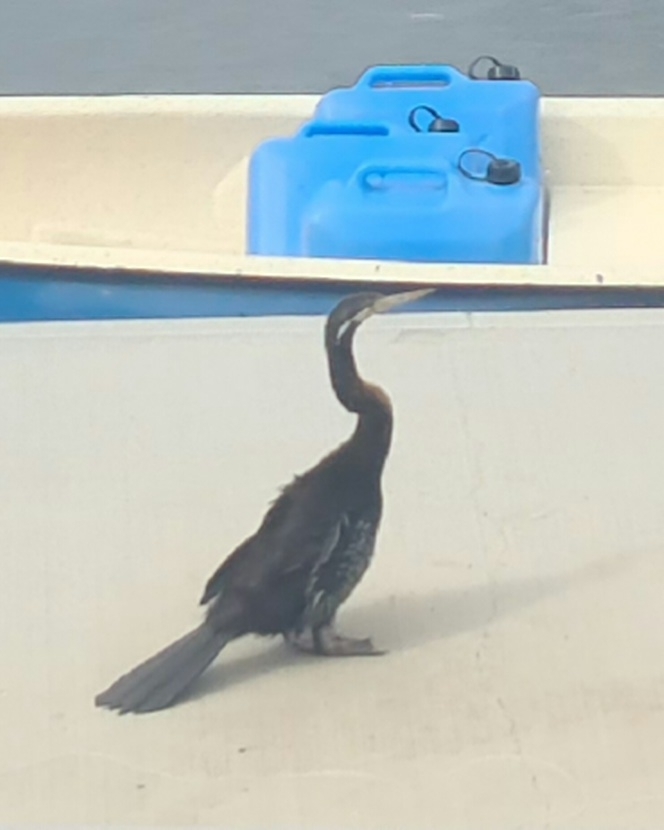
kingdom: Animalia
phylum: Chordata
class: Aves
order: Suliformes
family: Anhingidae
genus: Anhinga
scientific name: Anhinga novaehollandiae
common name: Australasian darter
